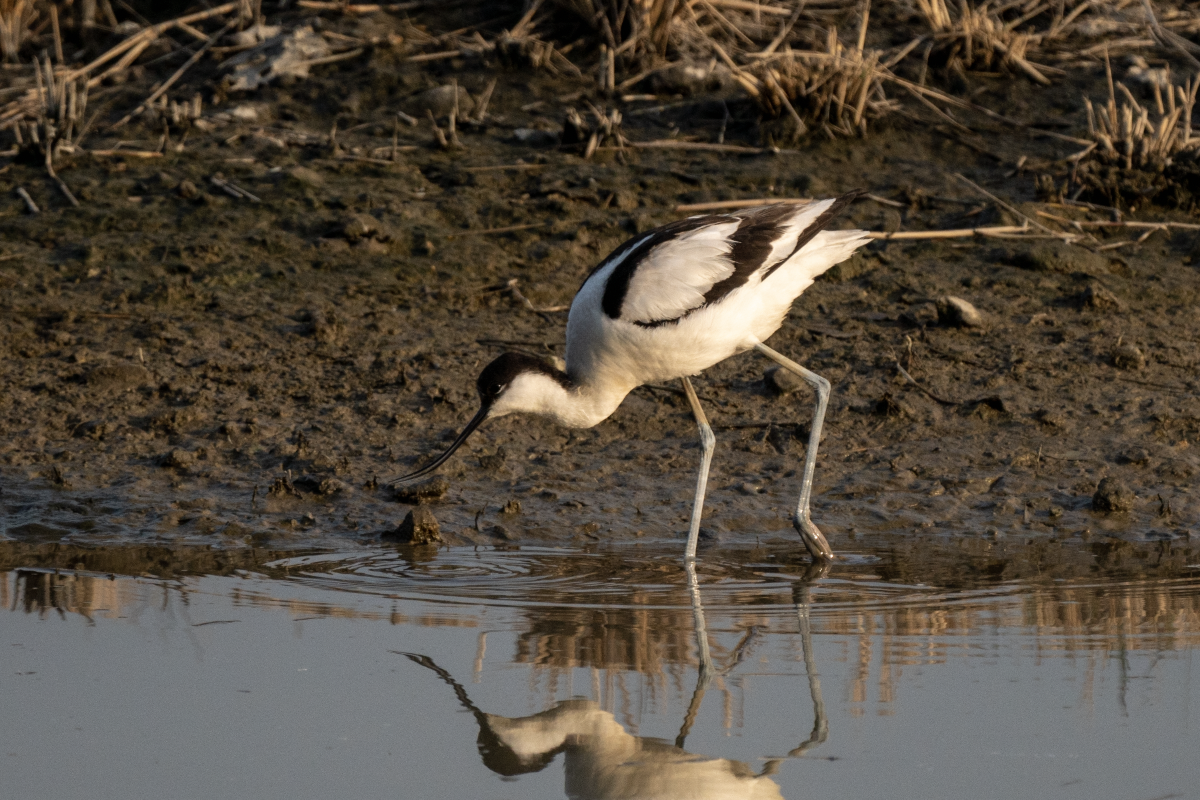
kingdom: Animalia
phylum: Chordata
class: Aves
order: Charadriiformes
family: Recurvirostridae
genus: Recurvirostra
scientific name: Recurvirostra avosetta
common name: Pied avocet
